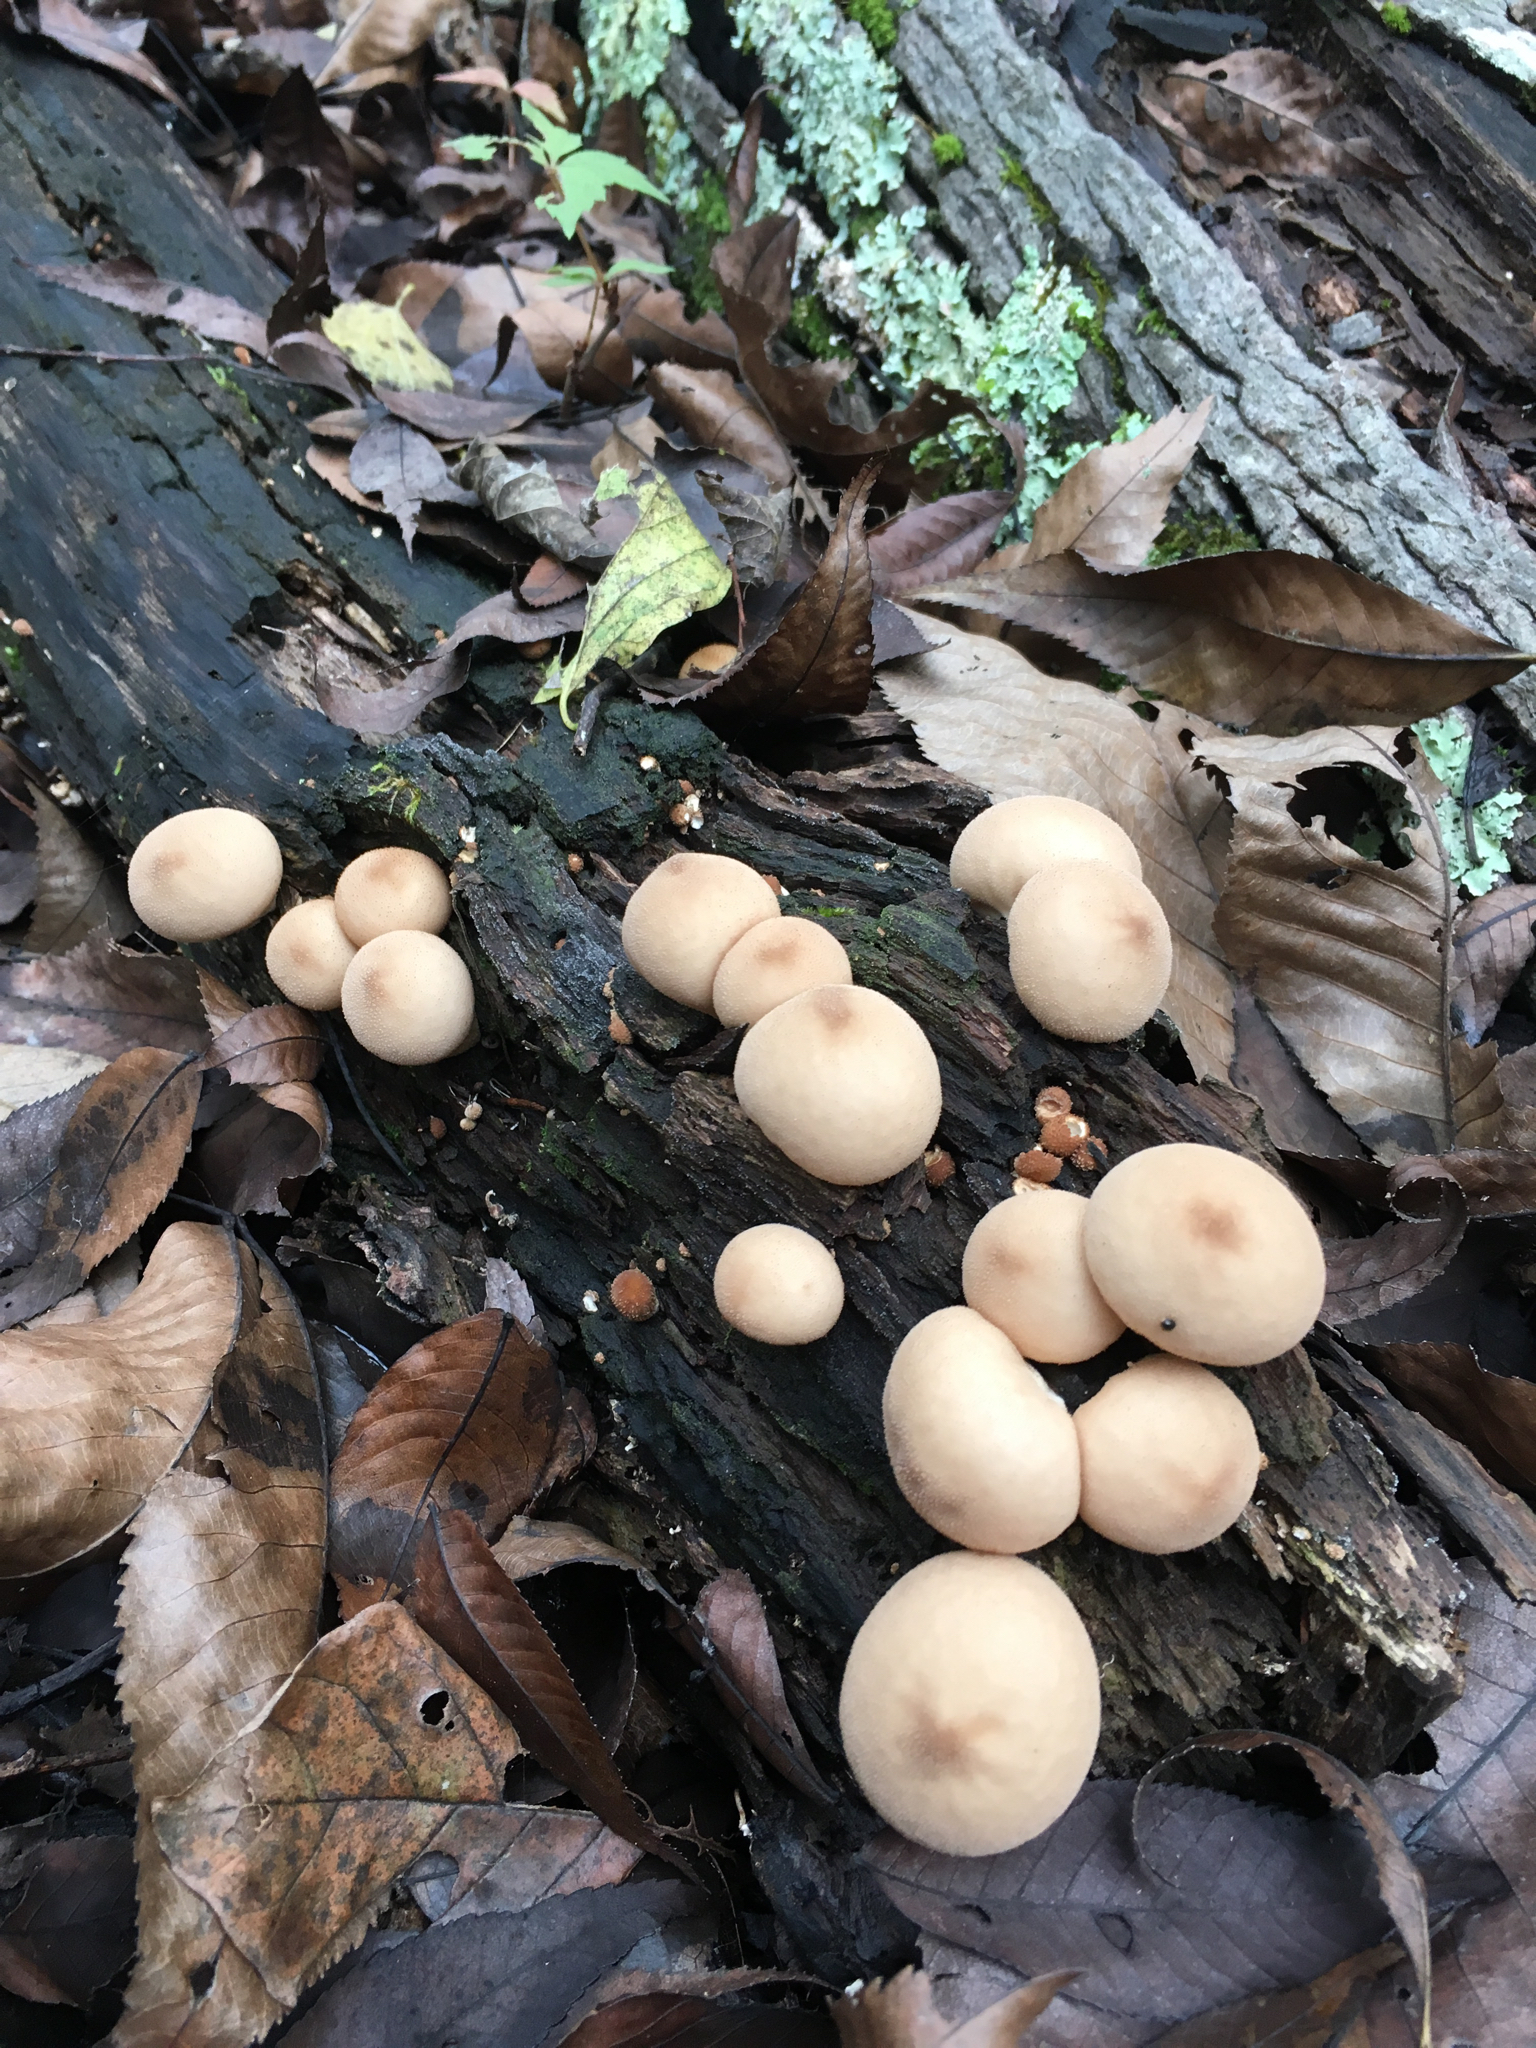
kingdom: Fungi
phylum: Basidiomycota
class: Agaricomycetes
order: Agaricales
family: Lycoperdaceae
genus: Apioperdon
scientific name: Apioperdon pyriforme
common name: Pear-shaped puffball
